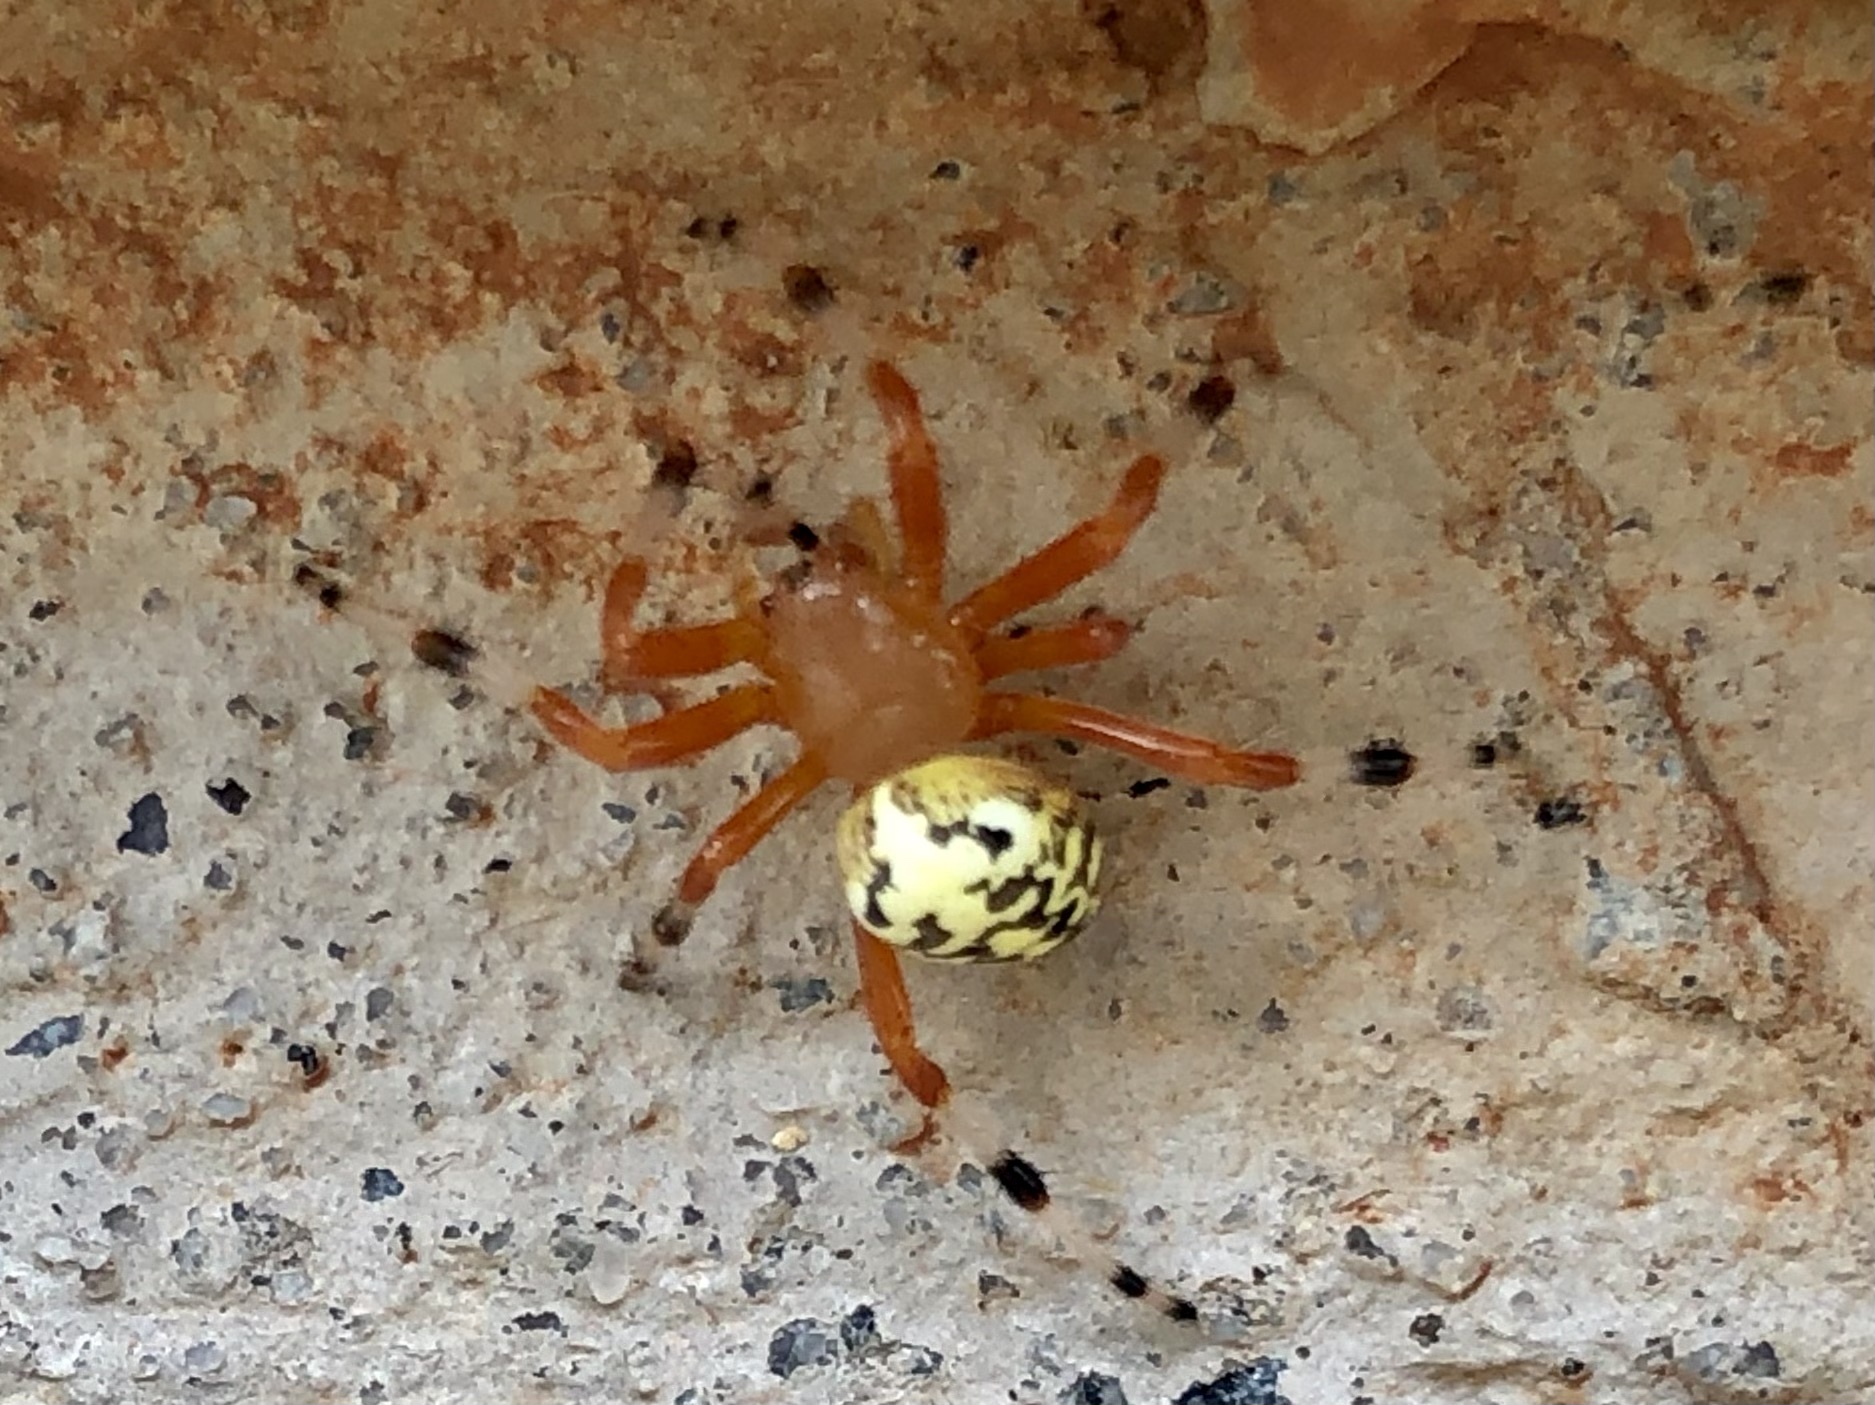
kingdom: Animalia
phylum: Arthropoda
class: Arachnida
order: Araneae
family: Araneidae
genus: Araneus
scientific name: Araneus marmoreus
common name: Marbled orbweaver
